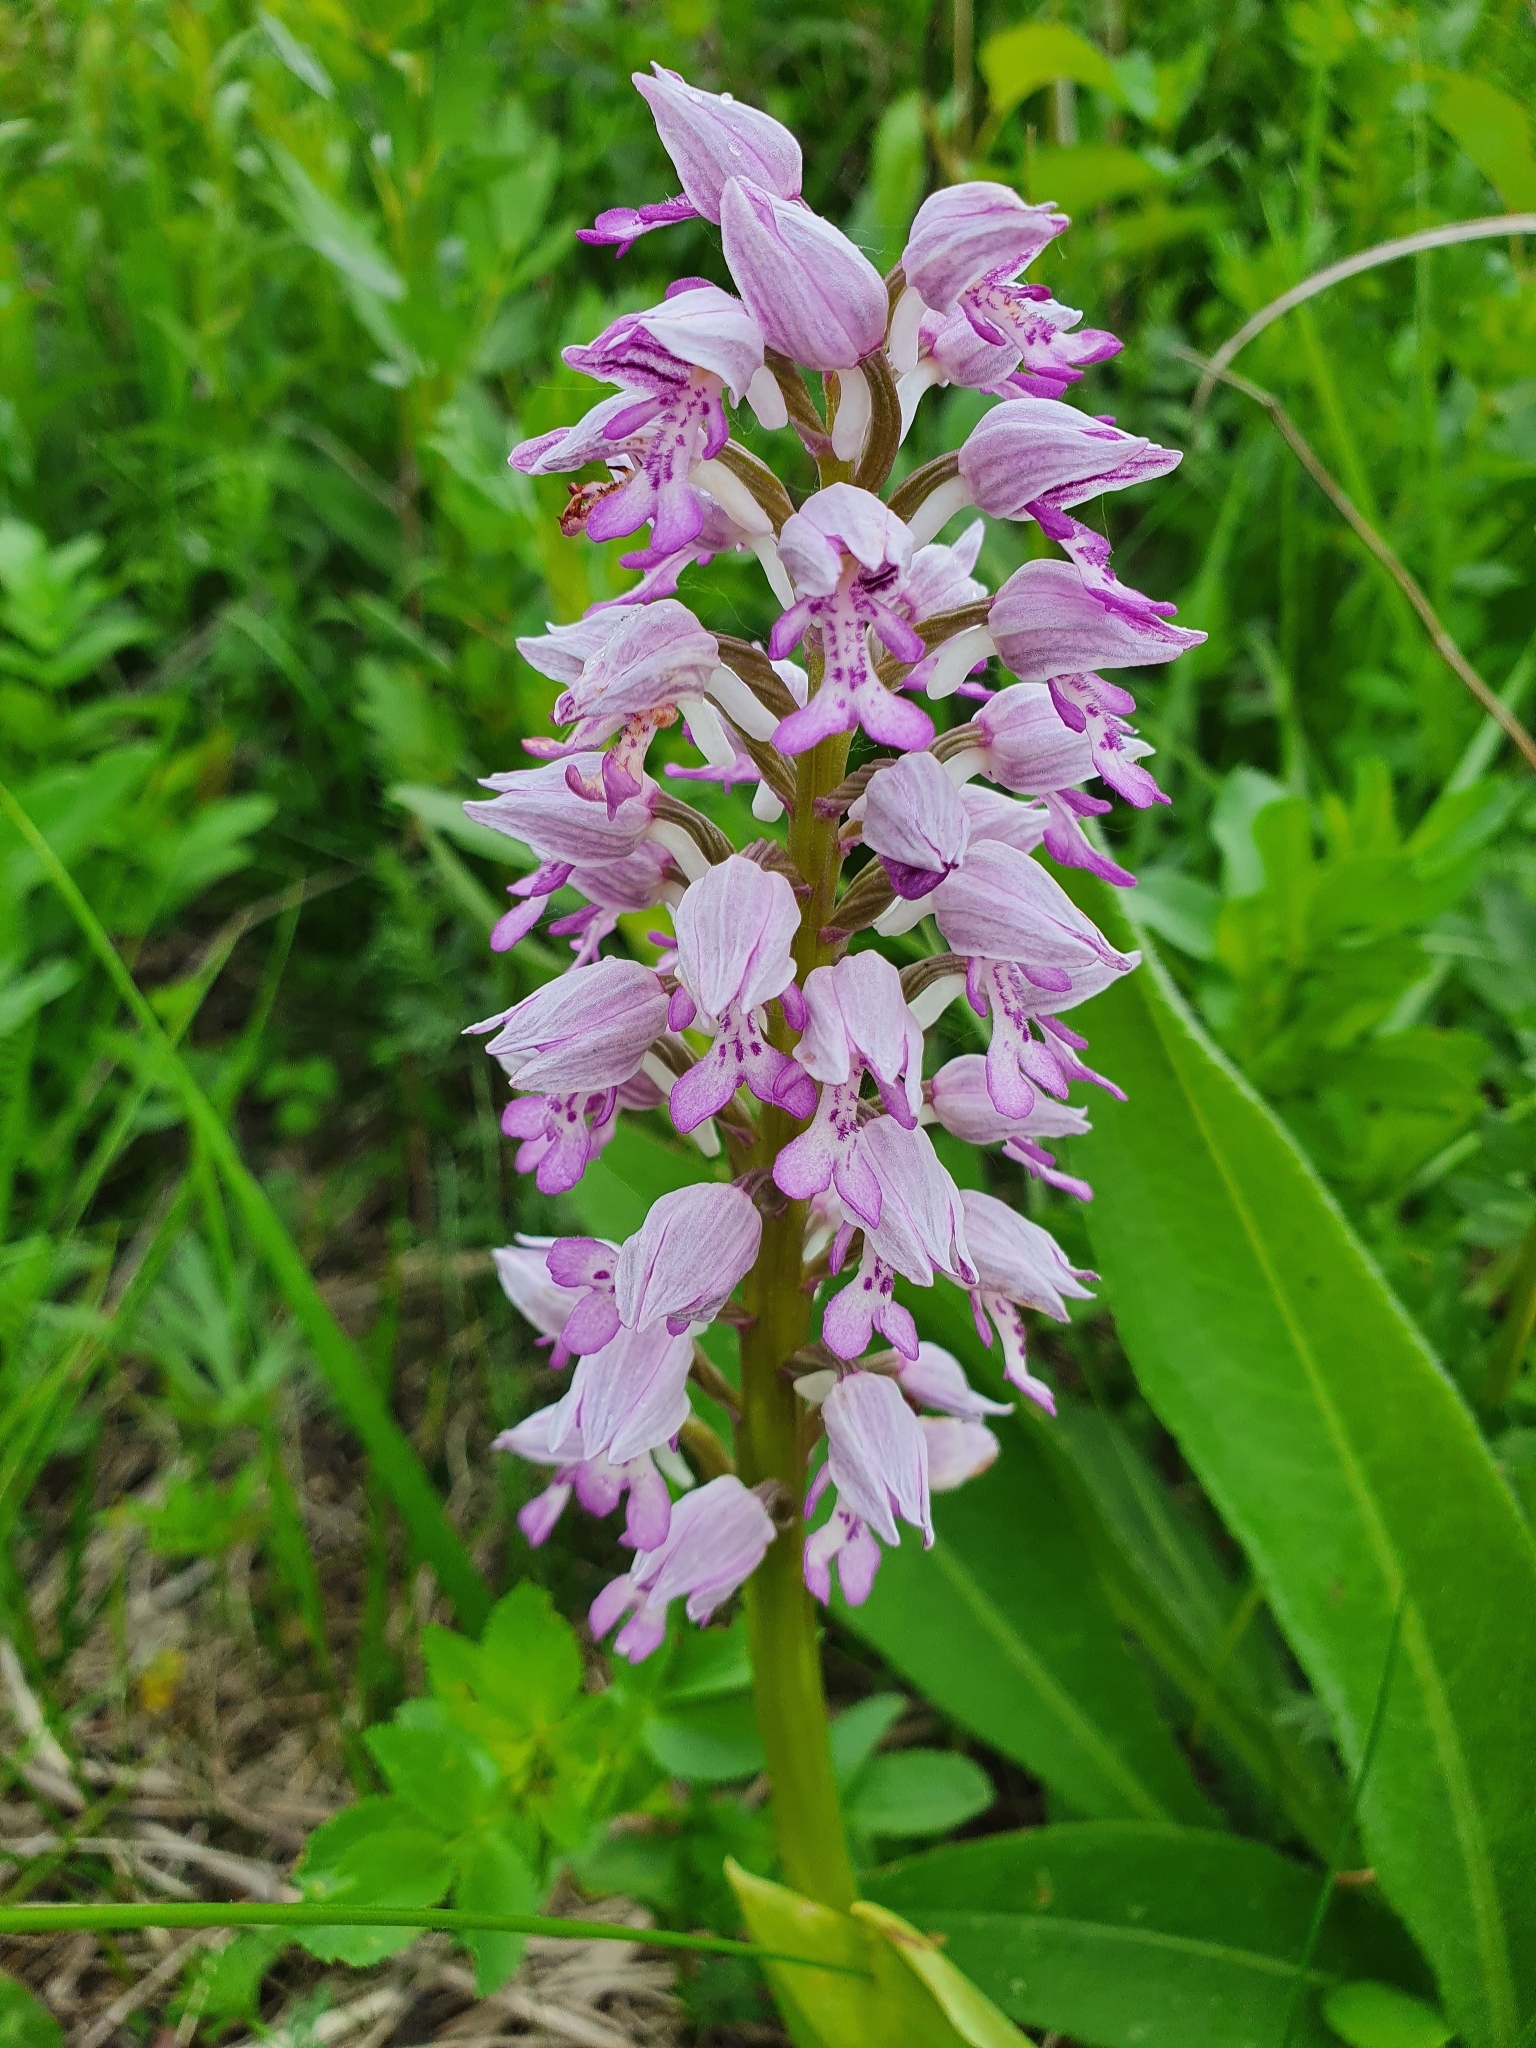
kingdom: Plantae
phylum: Tracheophyta
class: Liliopsida
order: Asparagales
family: Orchidaceae
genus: Orchis
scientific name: Orchis militaris
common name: Military orchid
